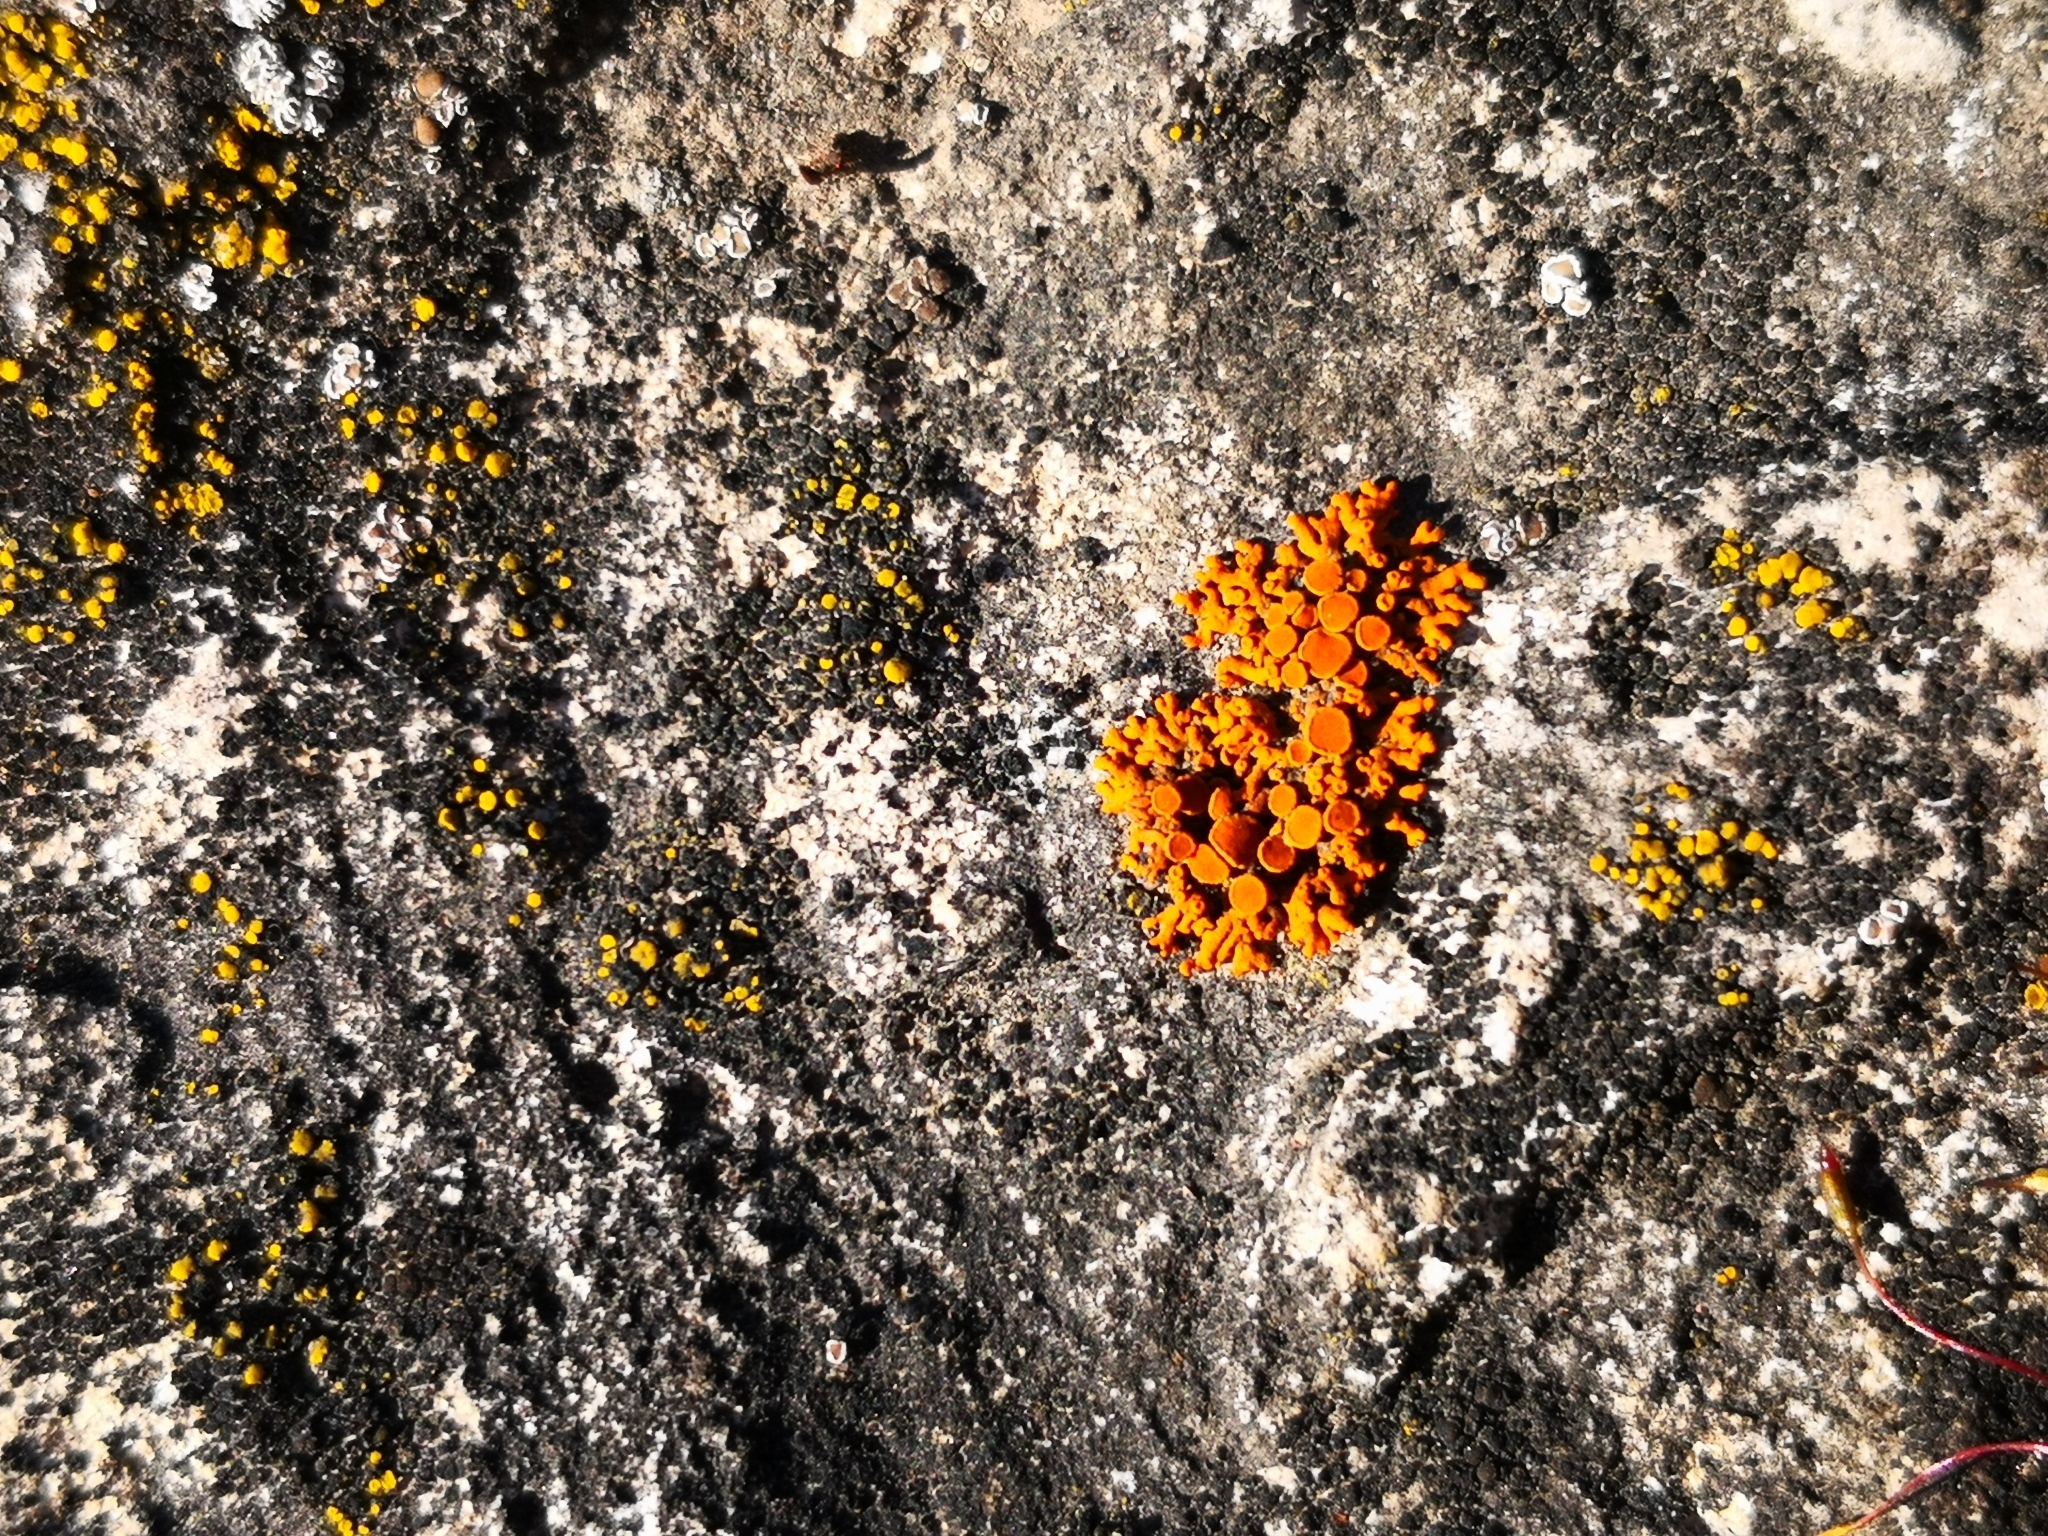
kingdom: Fungi
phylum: Ascomycota
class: Lecanoromycetes
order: Teloschistales
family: Teloschistaceae
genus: Xanthoria
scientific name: Xanthoria elegans
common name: Elegant sunburst lichen
